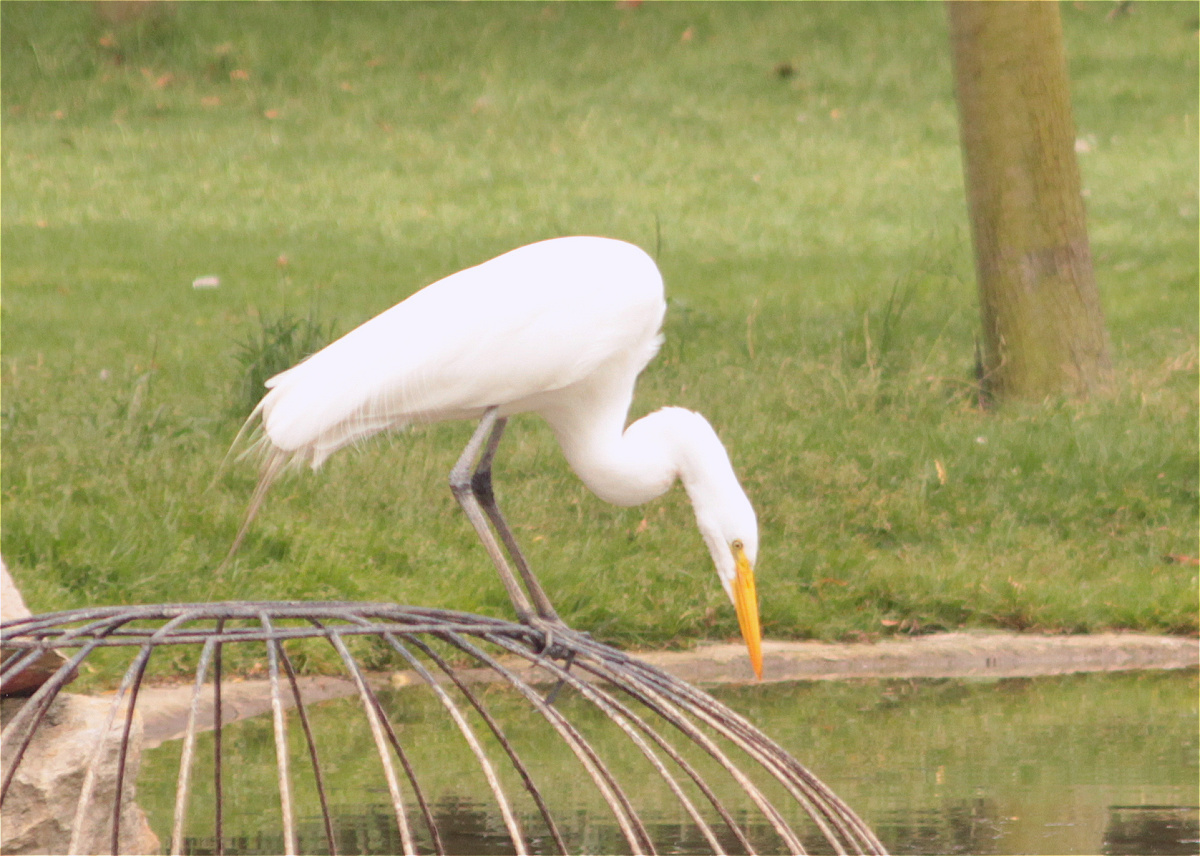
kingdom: Animalia
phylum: Chordata
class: Aves
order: Pelecaniformes
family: Ardeidae
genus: Ardea
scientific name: Ardea alba
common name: Great egret
